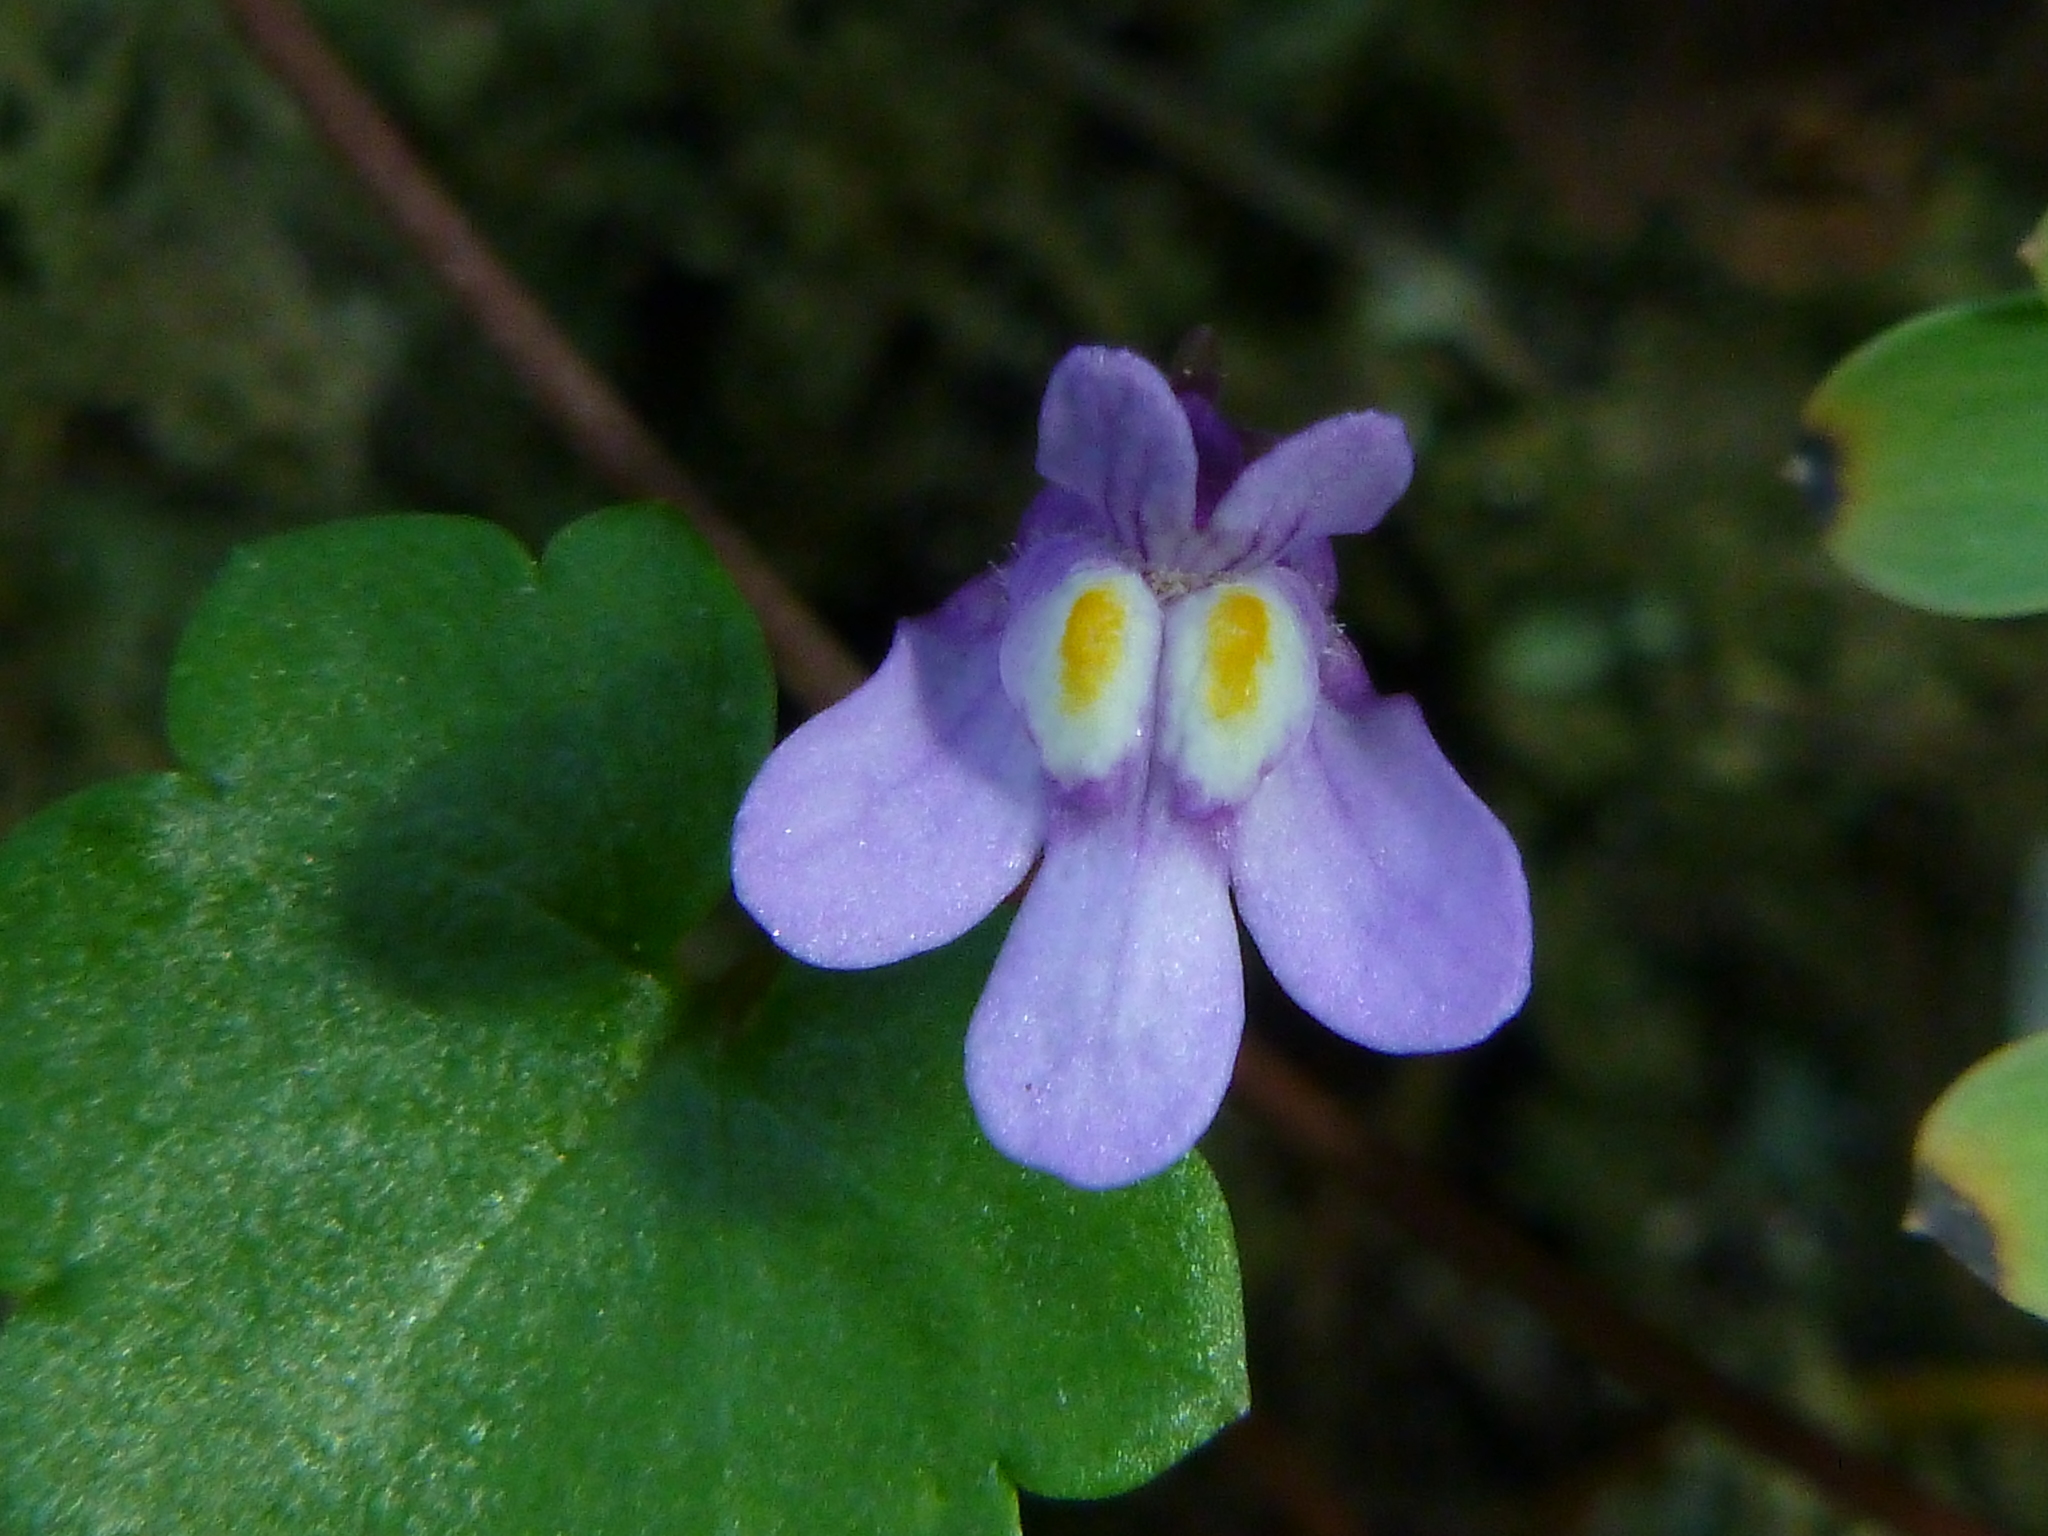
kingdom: Plantae
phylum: Tracheophyta
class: Magnoliopsida
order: Lamiales
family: Plantaginaceae
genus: Cymbalaria
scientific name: Cymbalaria muralis
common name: Ivy-leaved toadflax
